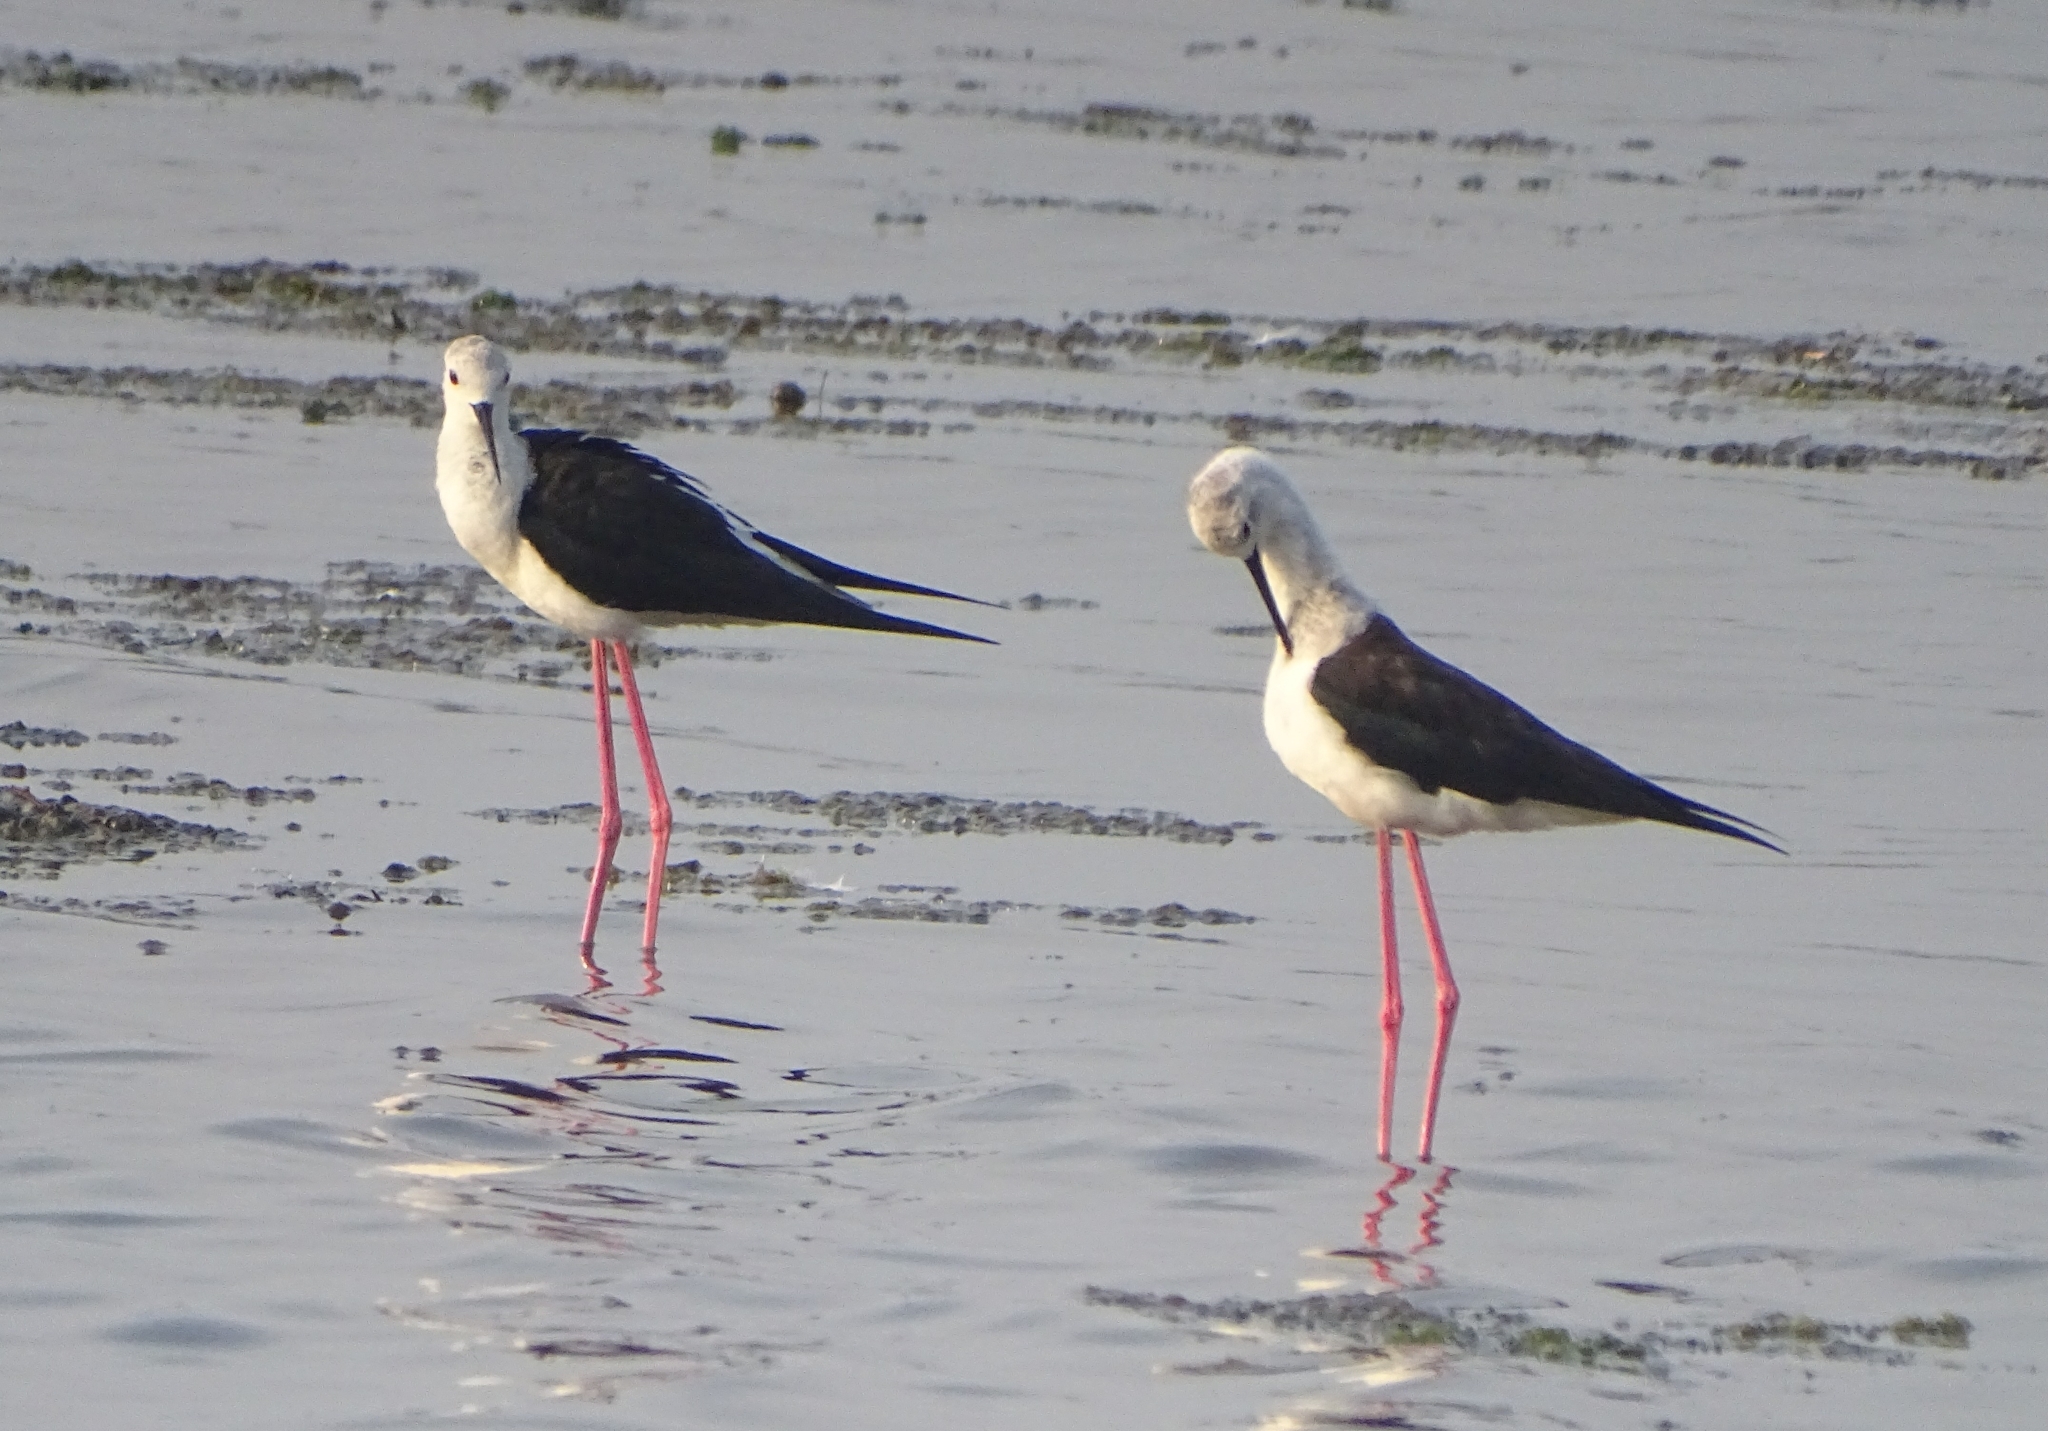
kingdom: Animalia
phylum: Chordata
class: Aves
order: Charadriiformes
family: Recurvirostridae
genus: Himantopus
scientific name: Himantopus himantopus
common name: Black-winged stilt
